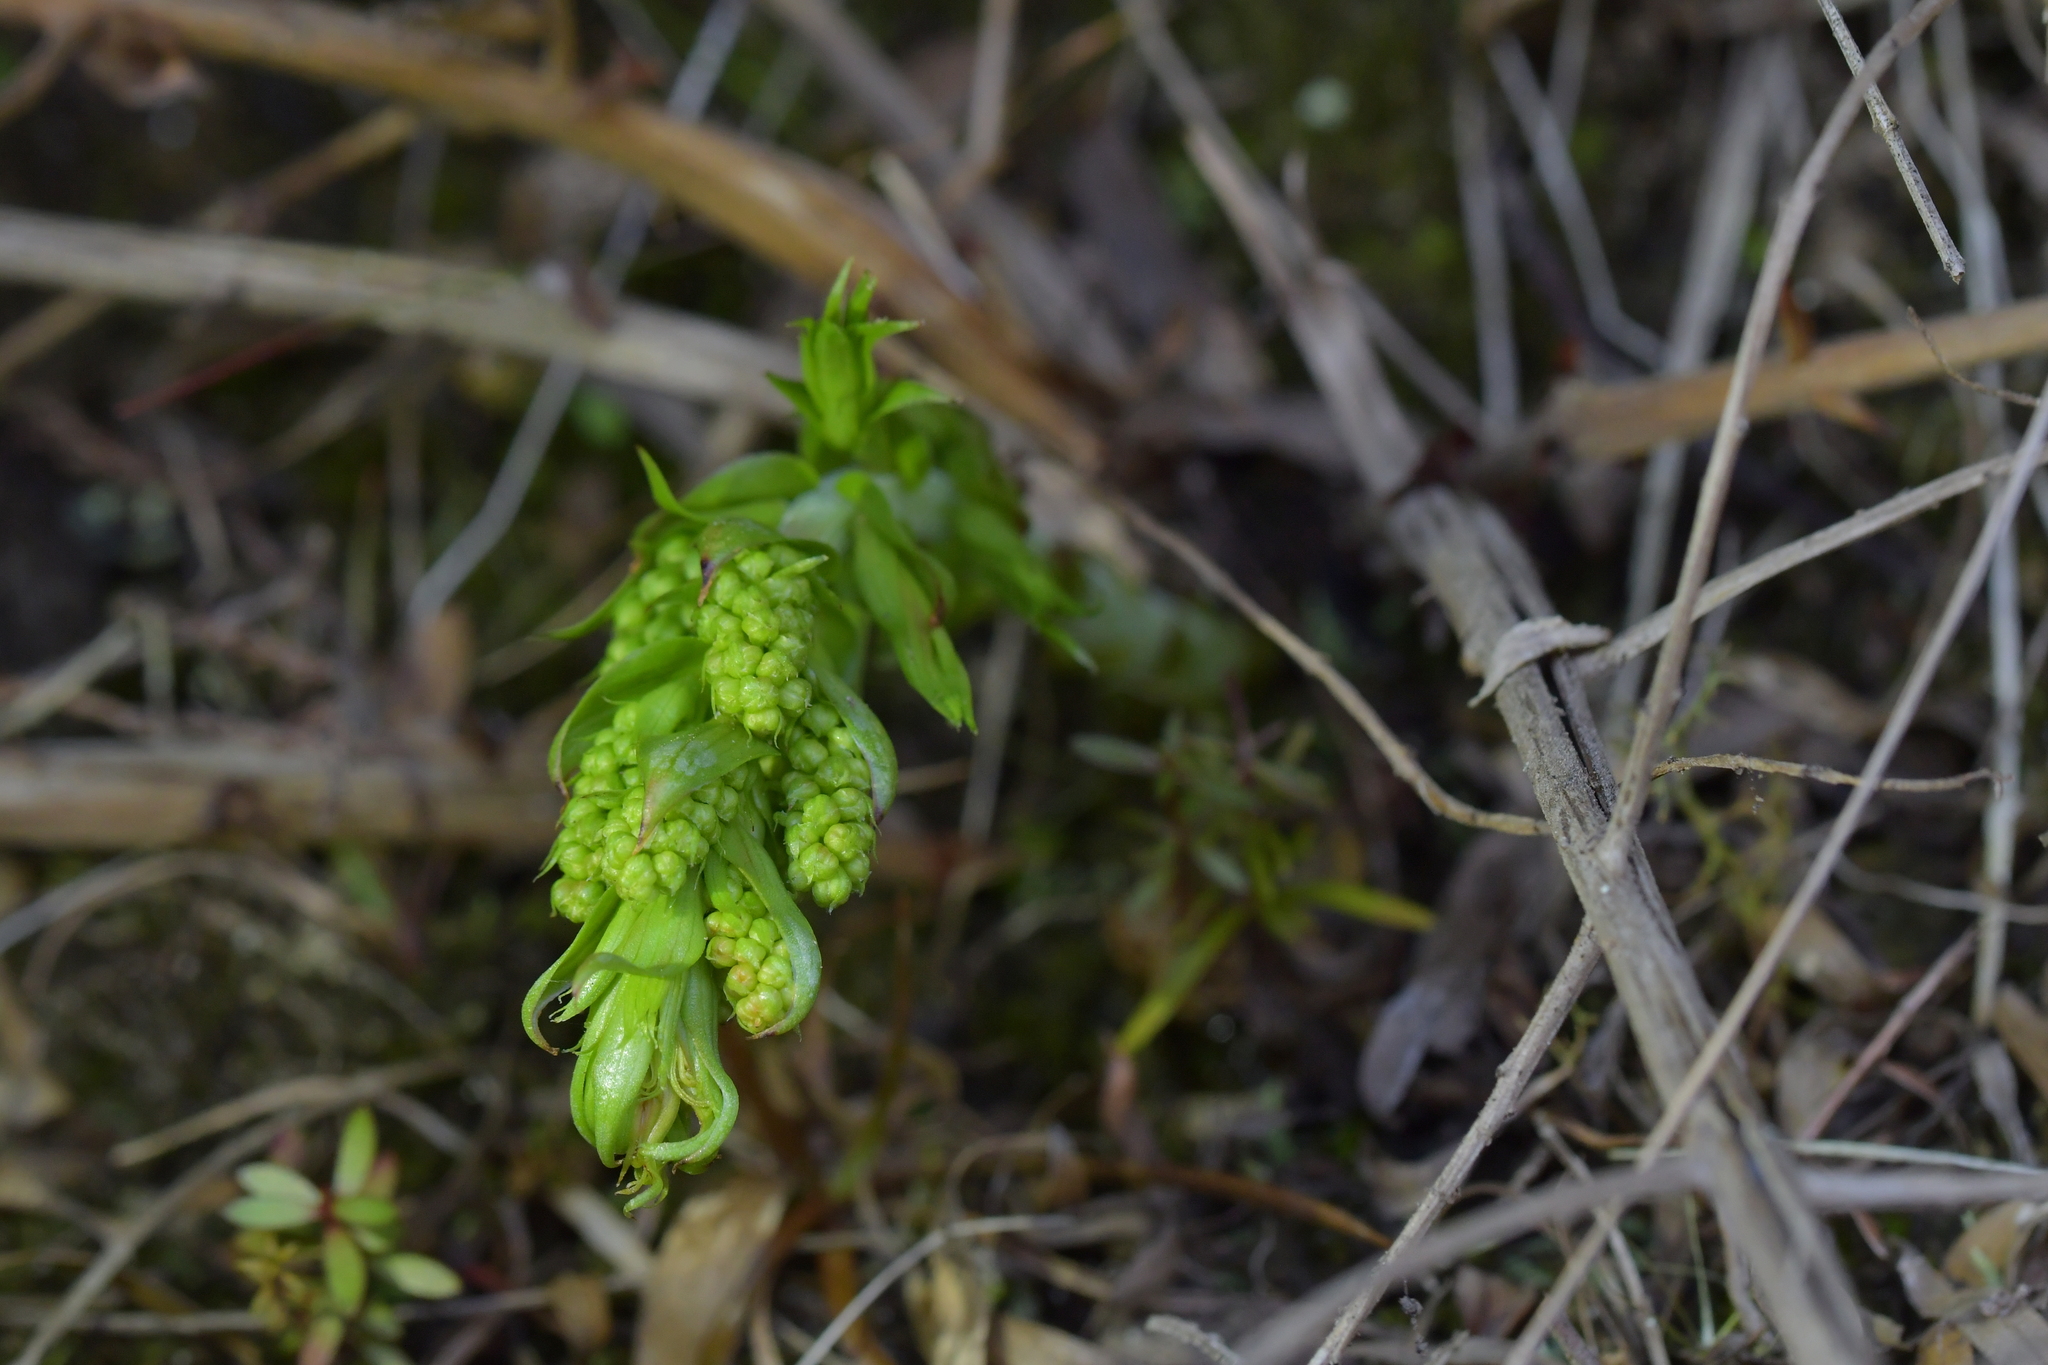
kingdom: Plantae
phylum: Tracheophyta
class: Magnoliopsida
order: Cucurbitales
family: Coriariaceae
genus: Coriaria
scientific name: Coriaria pteridoides
